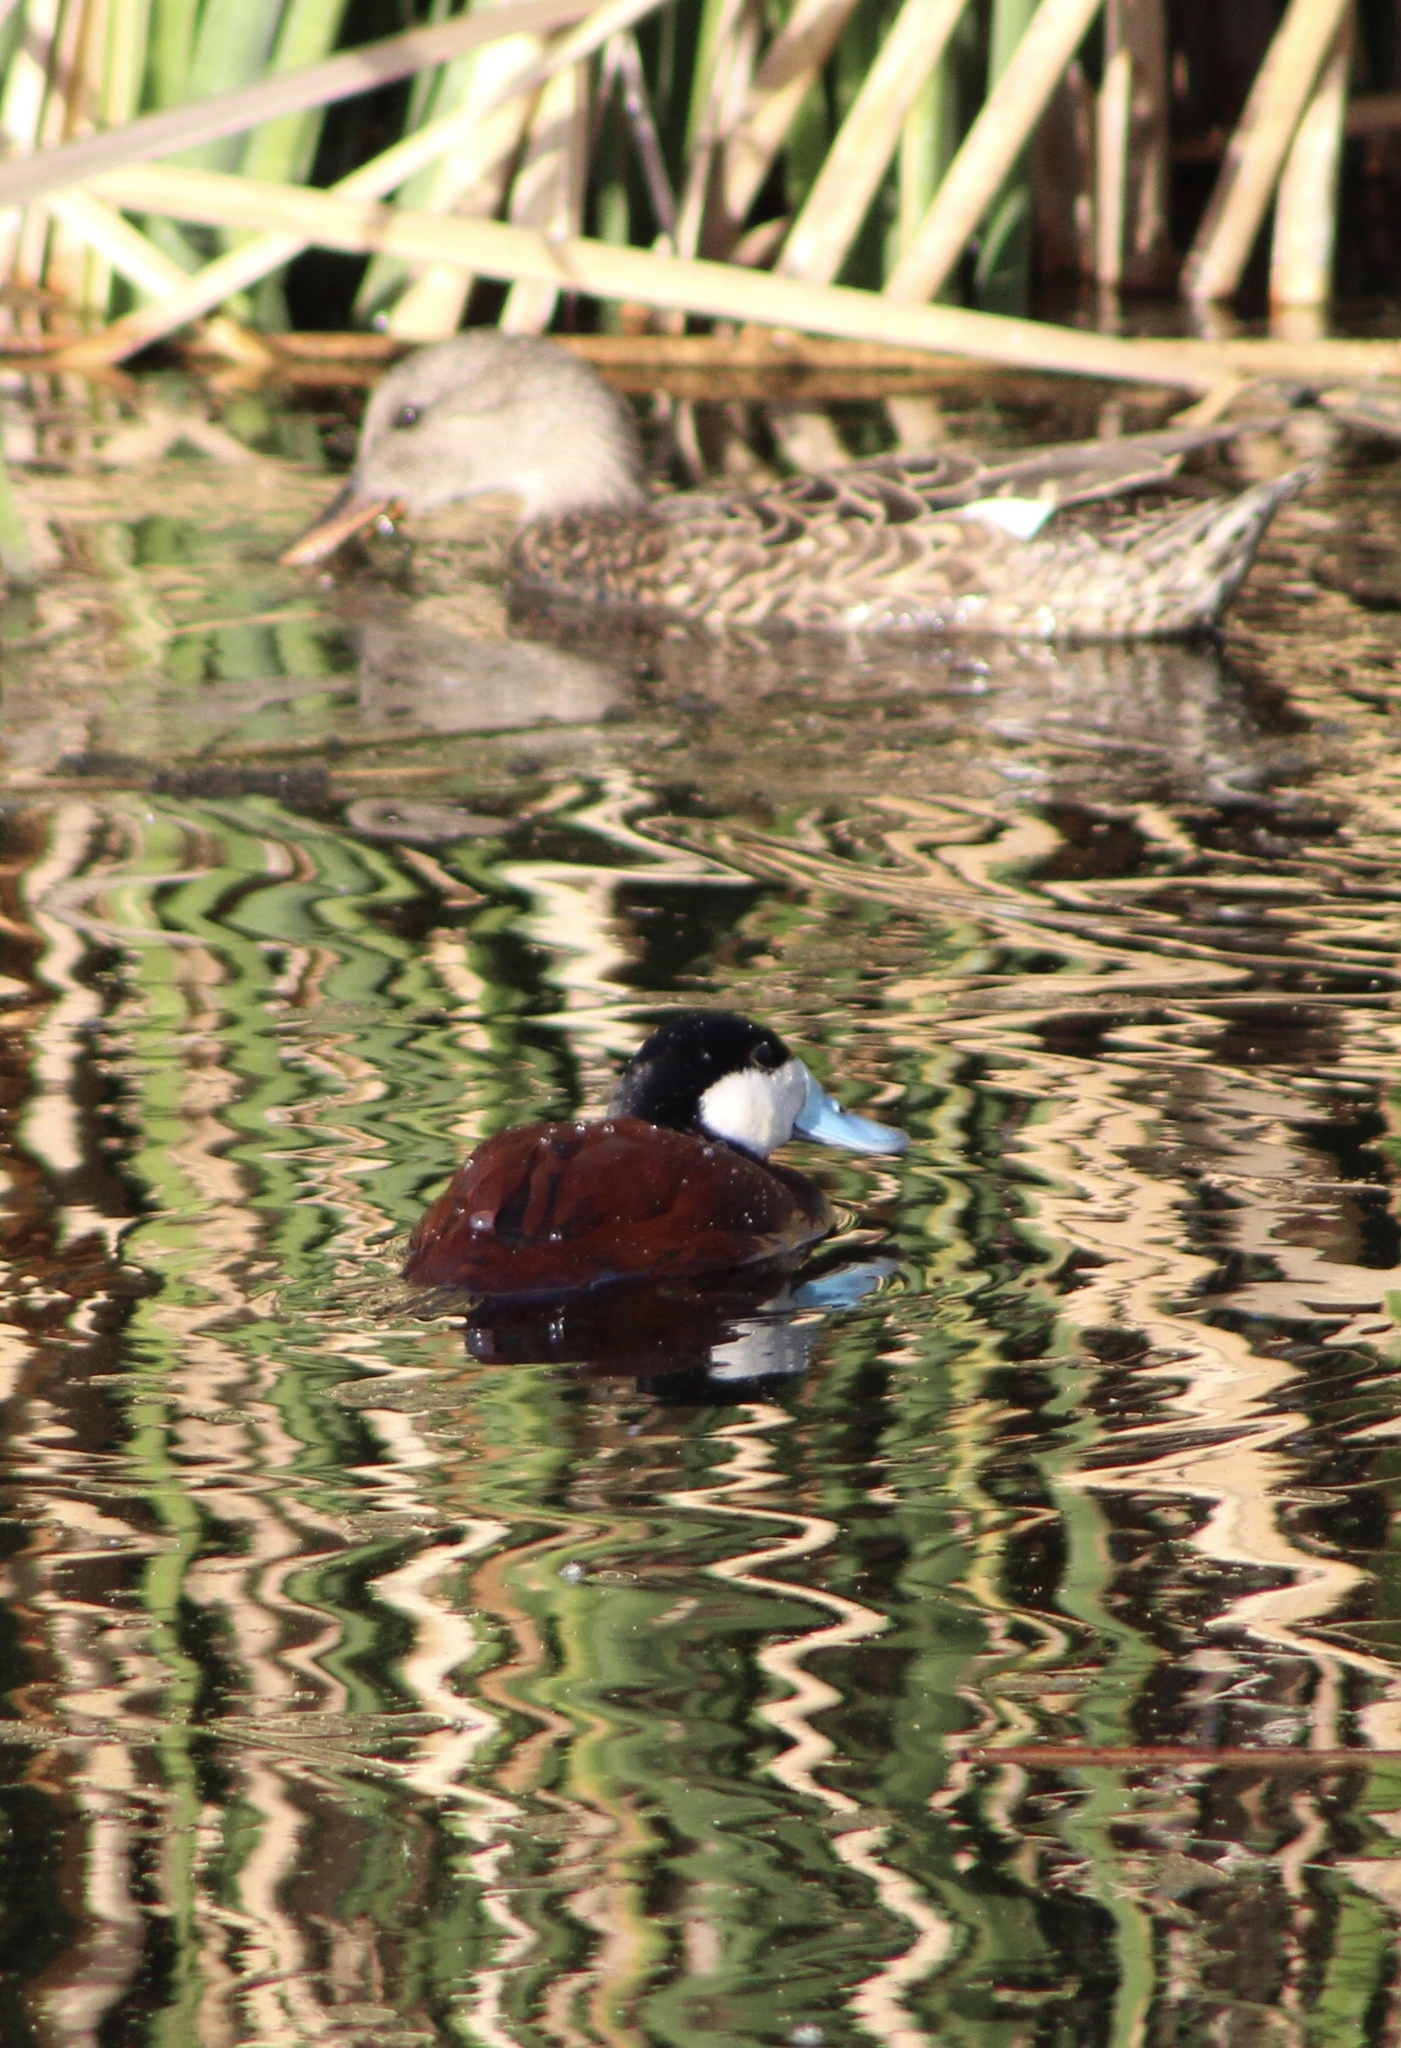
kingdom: Animalia
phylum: Chordata
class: Aves
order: Anseriformes
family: Anatidae
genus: Oxyura
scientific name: Oxyura jamaicensis
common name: Ruddy duck
